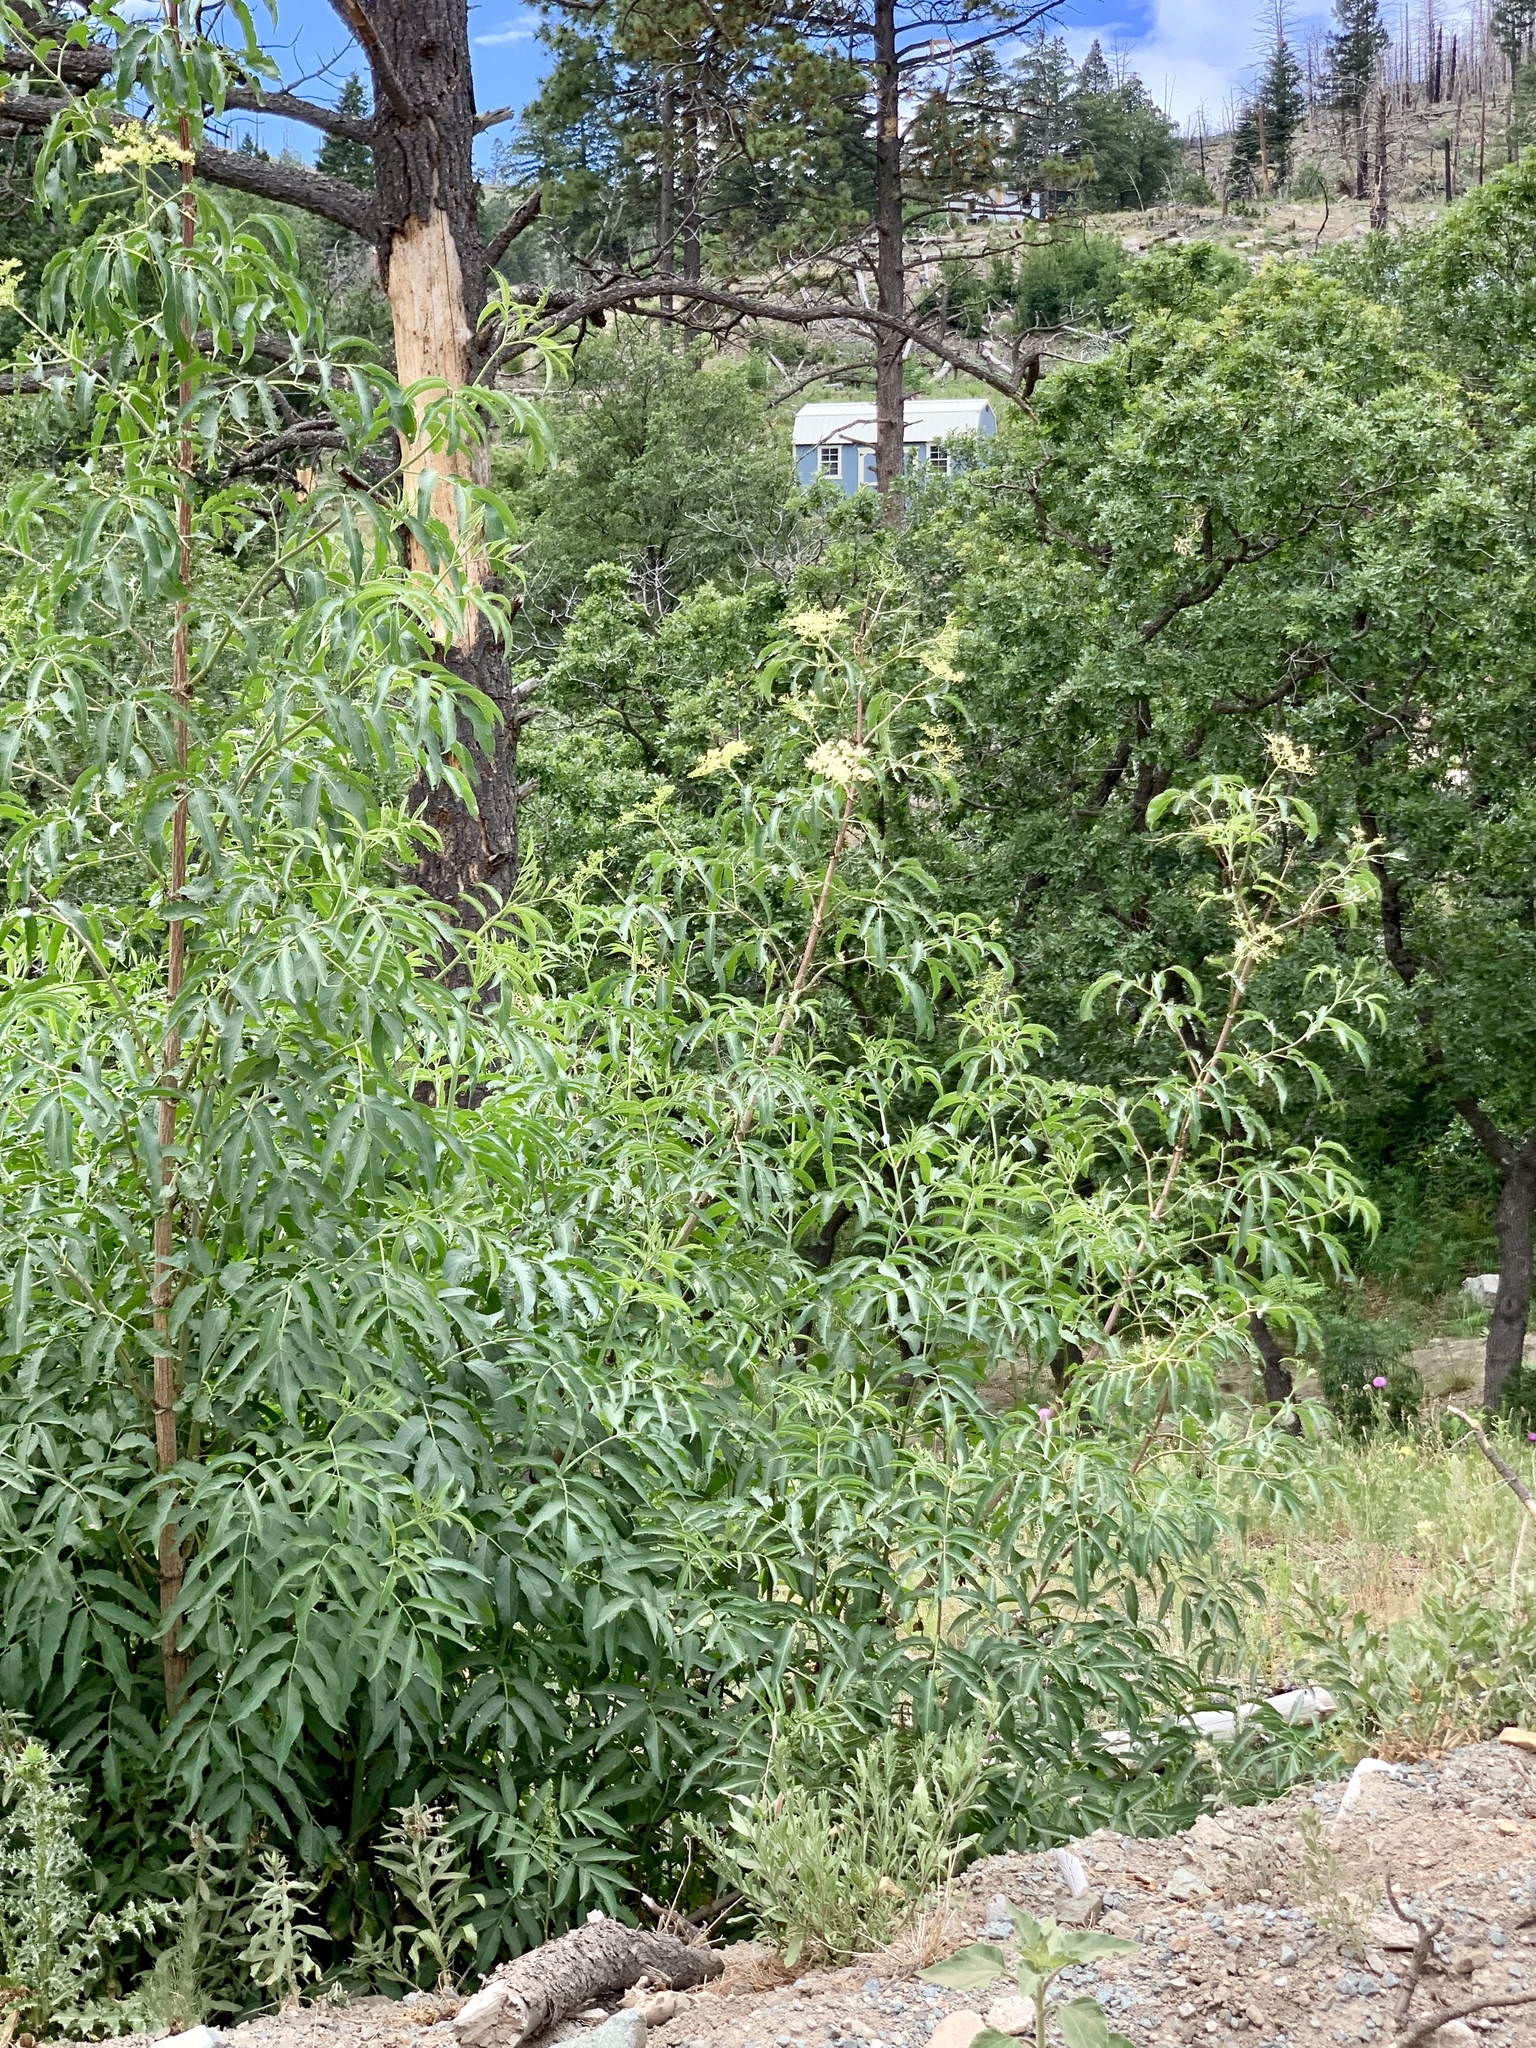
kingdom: Plantae
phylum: Tracheophyta
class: Magnoliopsida
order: Dipsacales
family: Viburnaceae
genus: Sambucus
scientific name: Sambucus cerulea
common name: Blue elder
